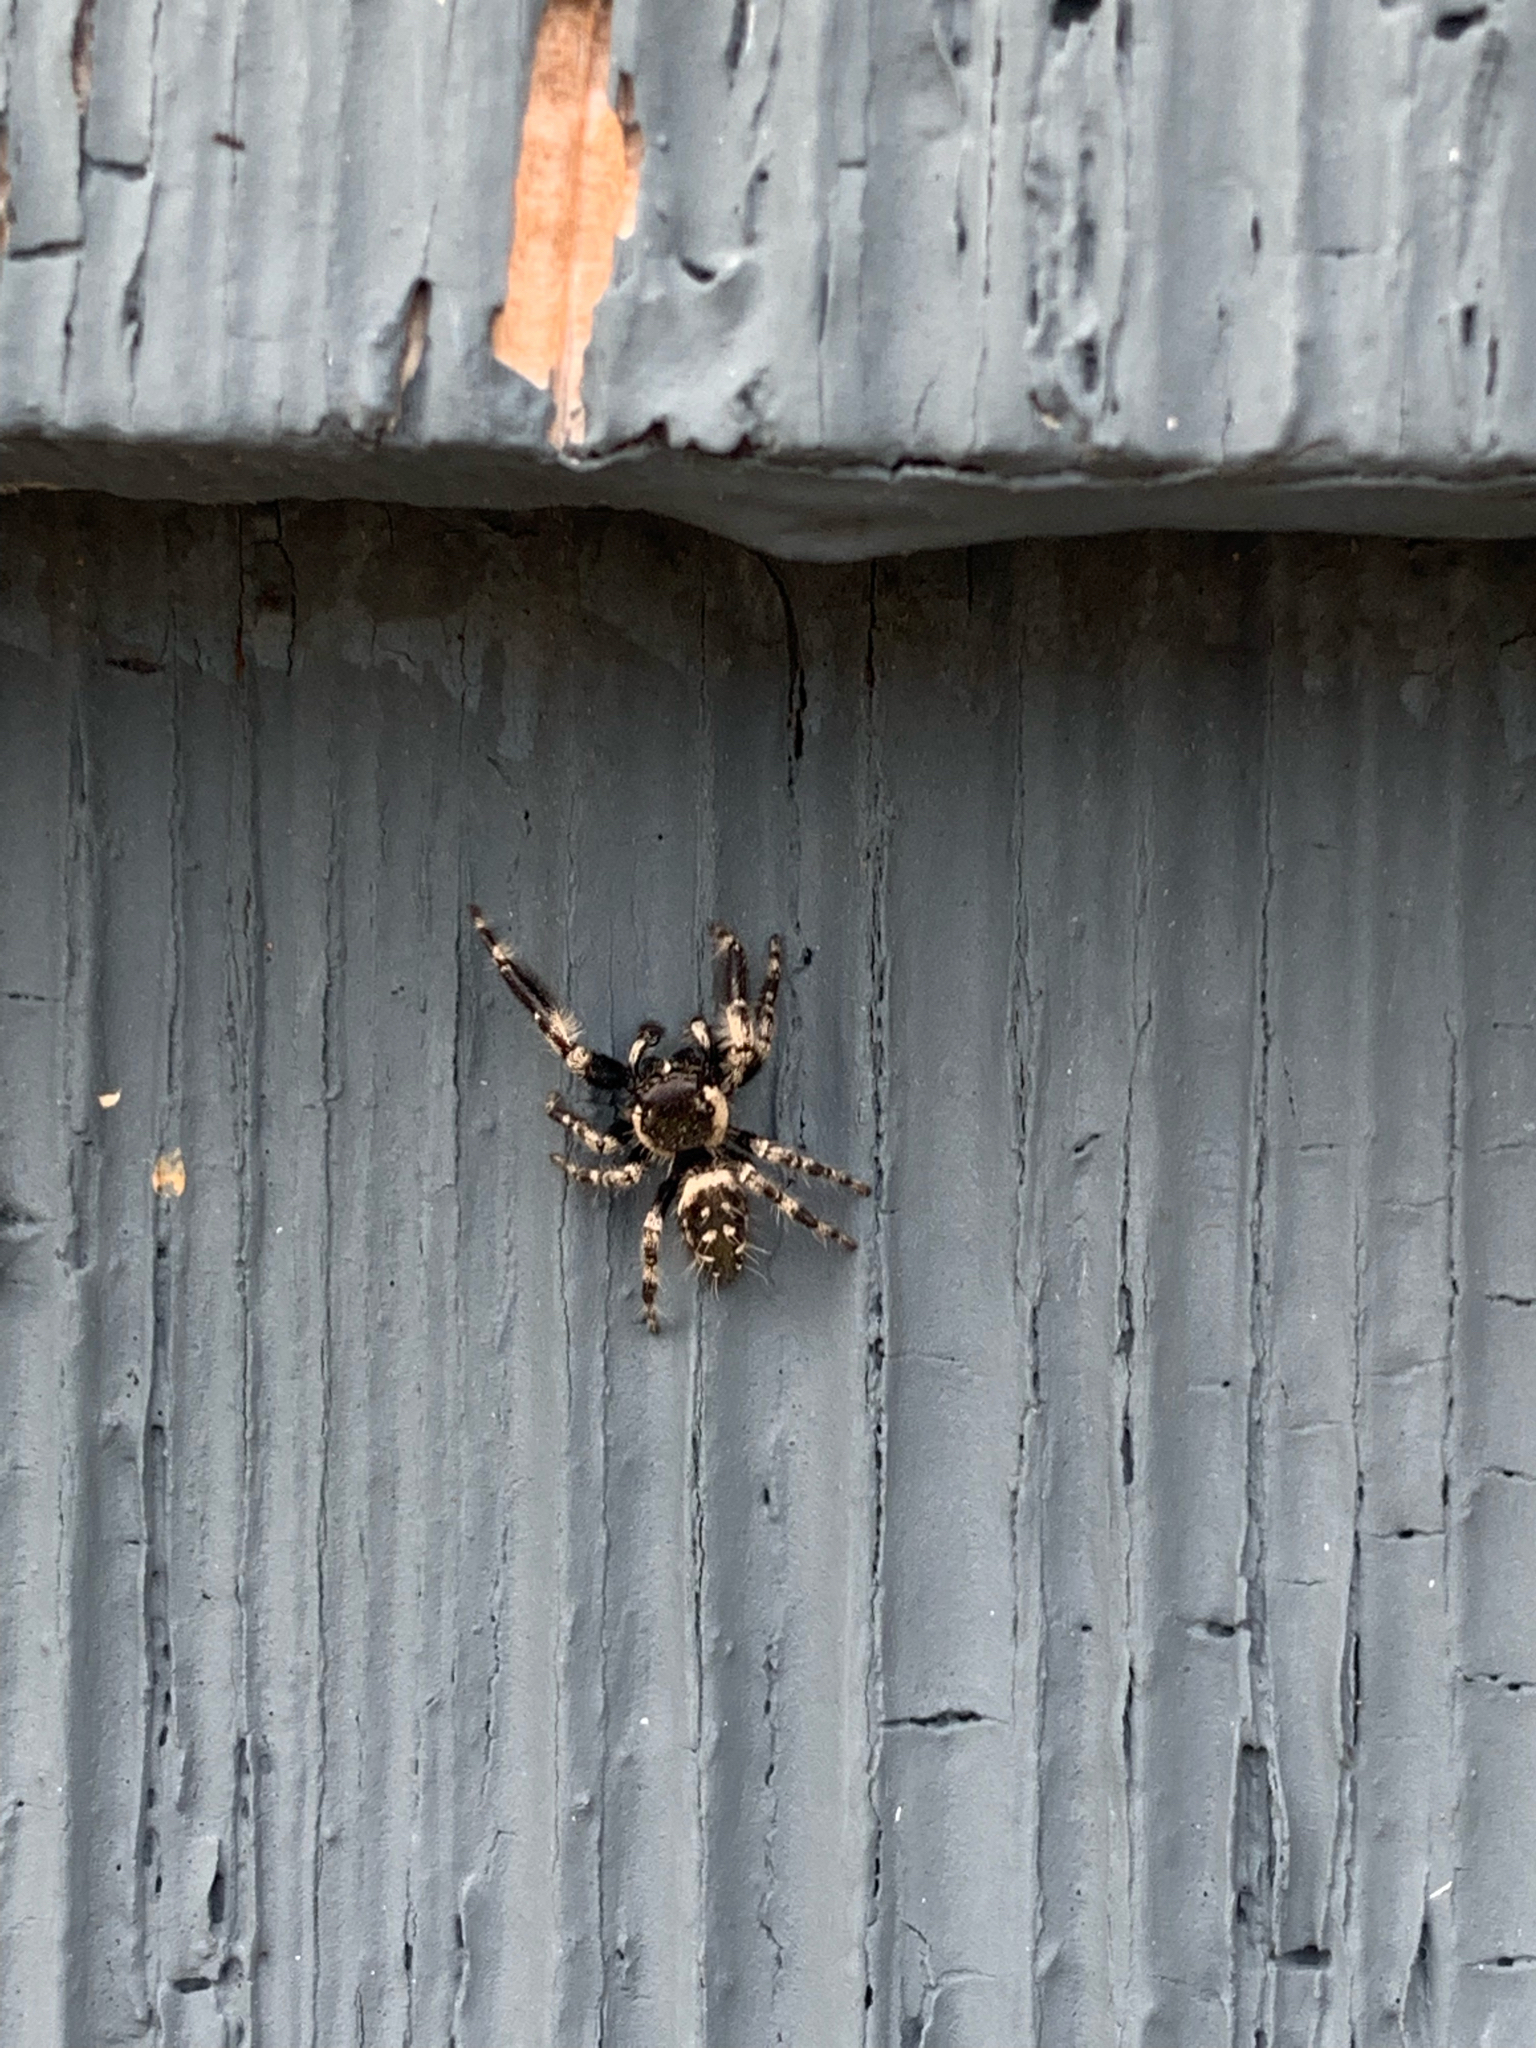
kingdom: Animalia
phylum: Arthropoda
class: Arachnida
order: Araneae
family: Salticidae
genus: Phidippus
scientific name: Phidippus otiosus
